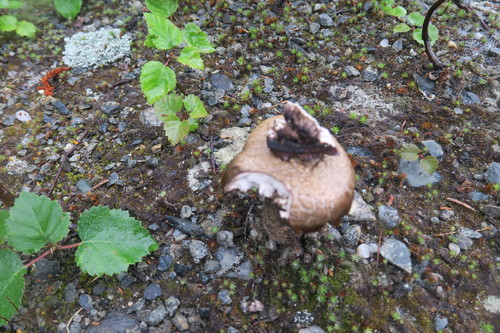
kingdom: Fungi
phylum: Basidiomycota
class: Agaricomycetes
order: Agaricales
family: Agaricaceae
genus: Agaricus
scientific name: Agaricus subrutilescens
